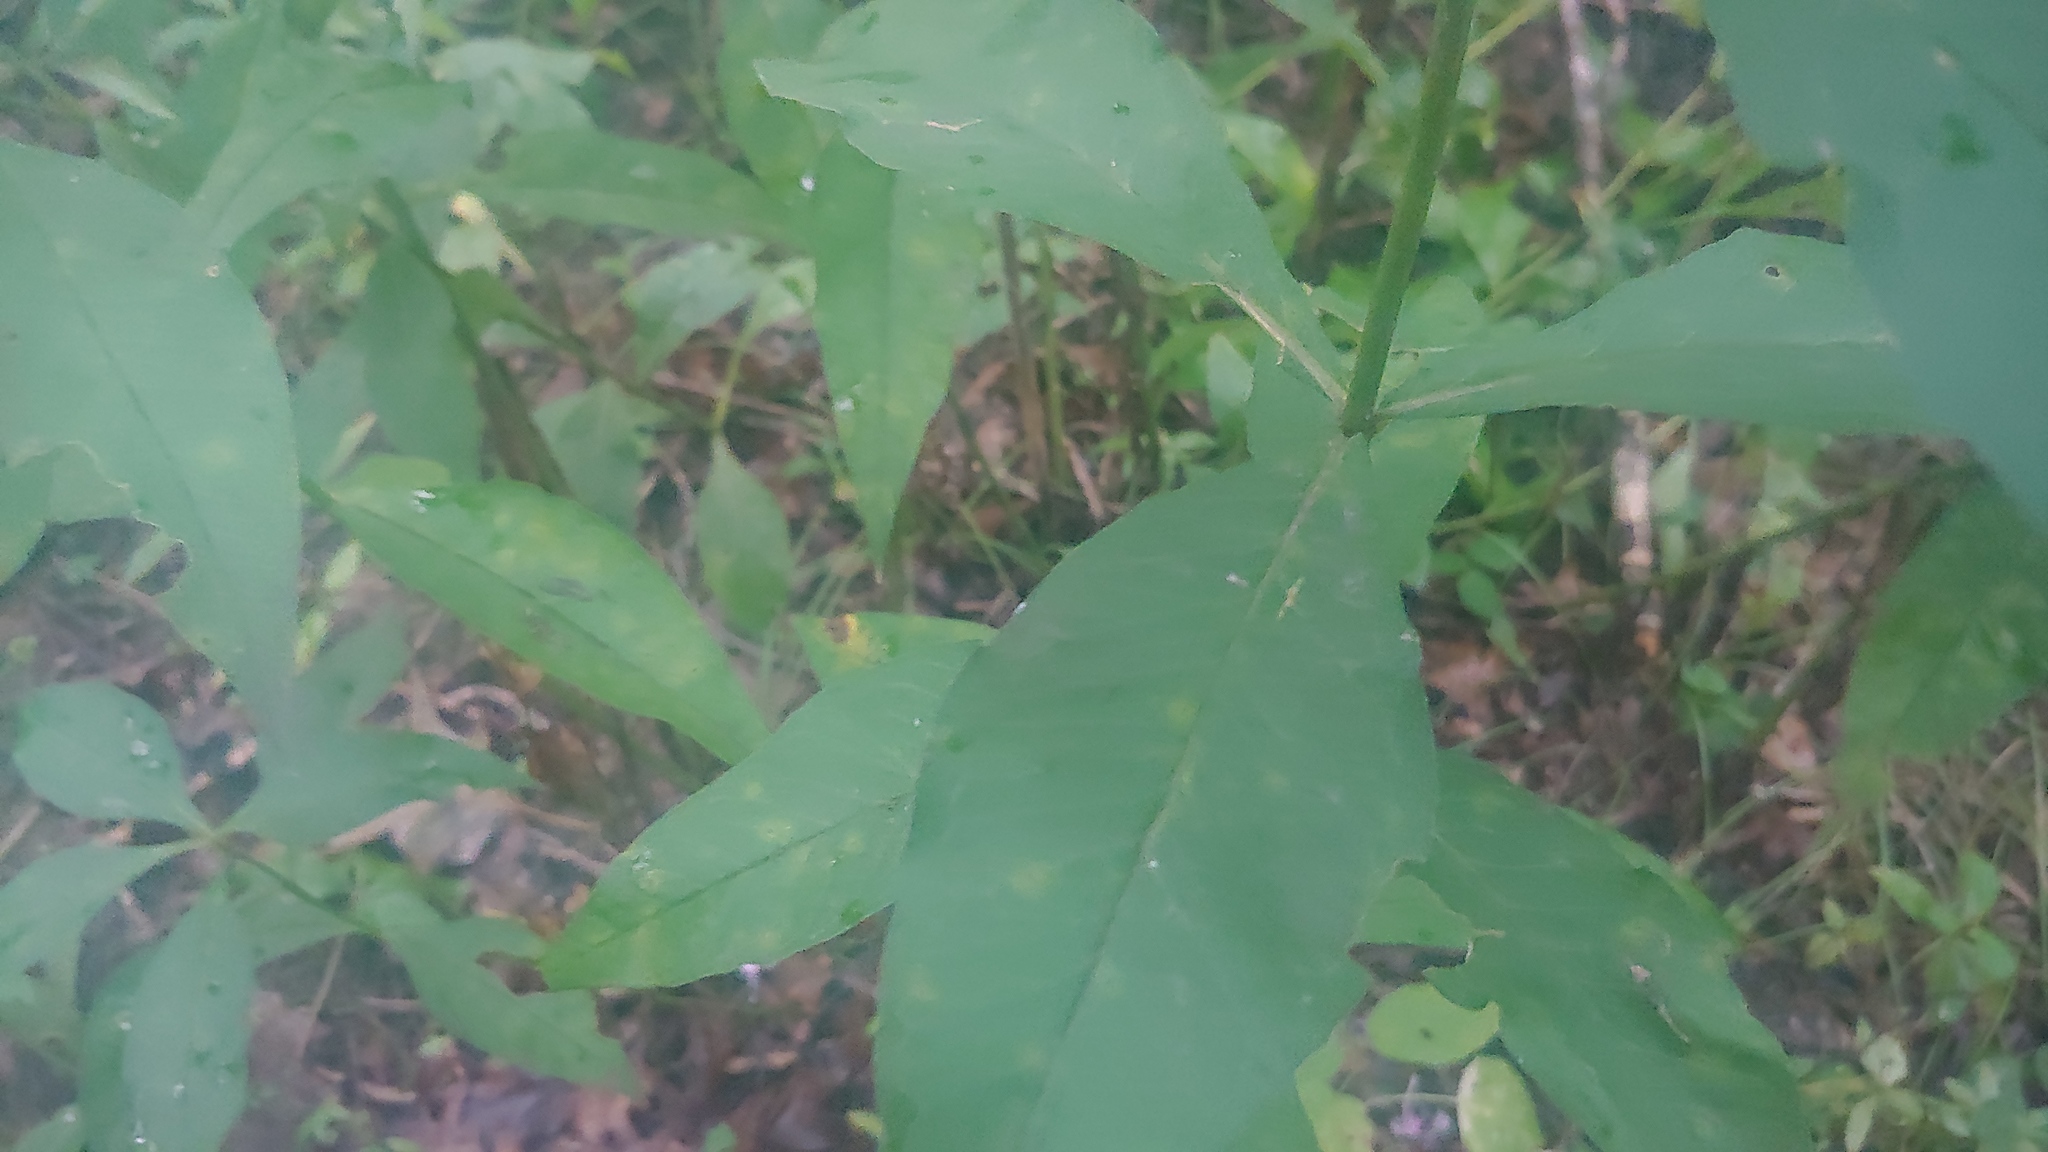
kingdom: Plantae
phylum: Tracheophyta
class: Magnoliopsida
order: Ericales
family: Polemoniaceae
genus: Phlox
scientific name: Phlox paniculata
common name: Fall phlox
